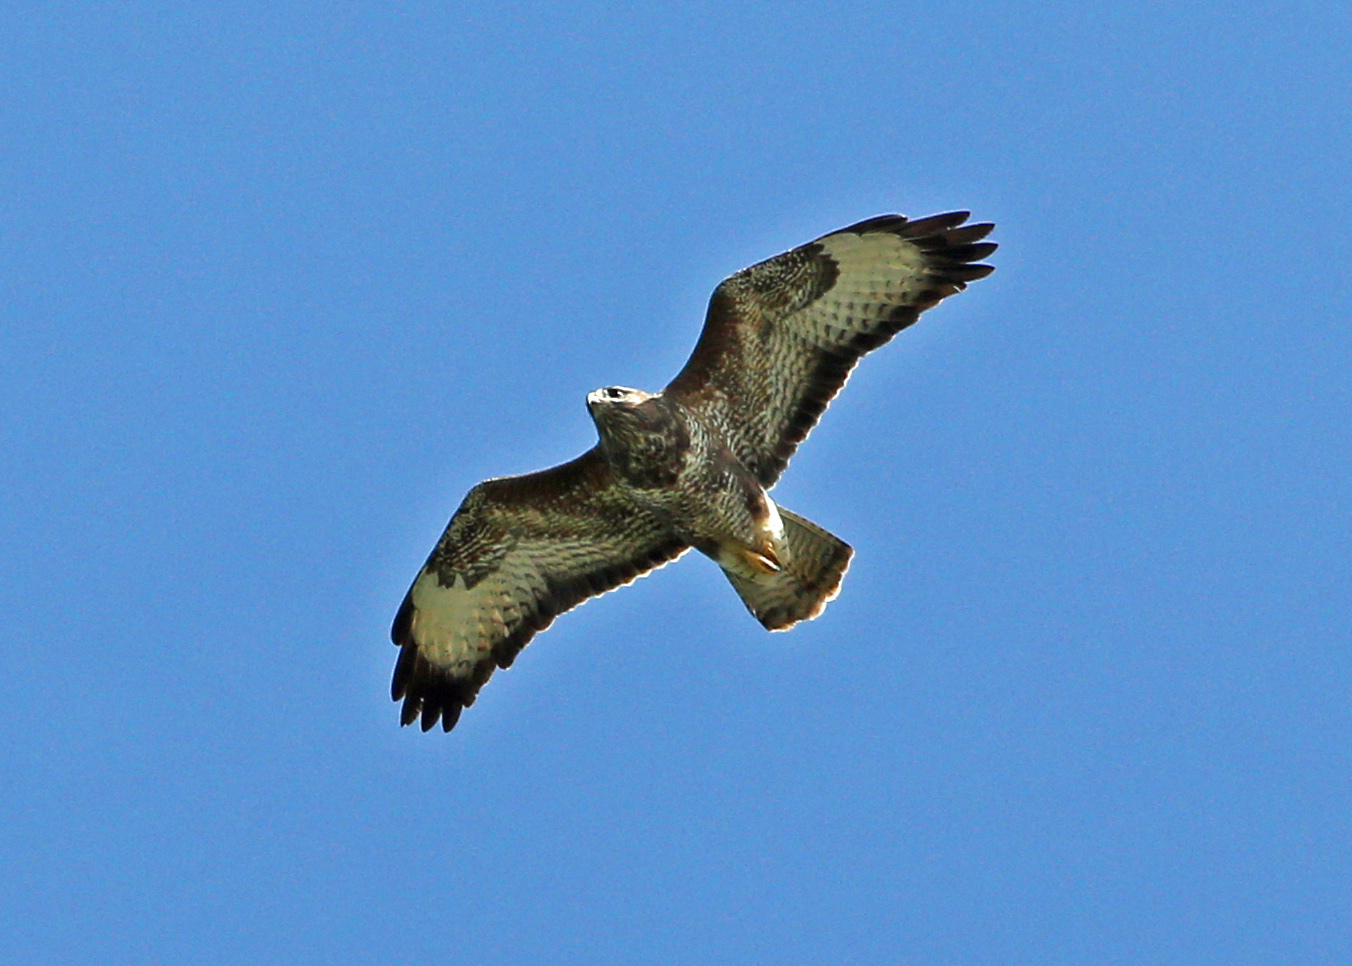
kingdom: Animalia
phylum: Chordata
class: Aves
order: Accipitriformes
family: Accipitridae
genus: Buteo
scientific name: Buteo buteo
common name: Common buzzard
